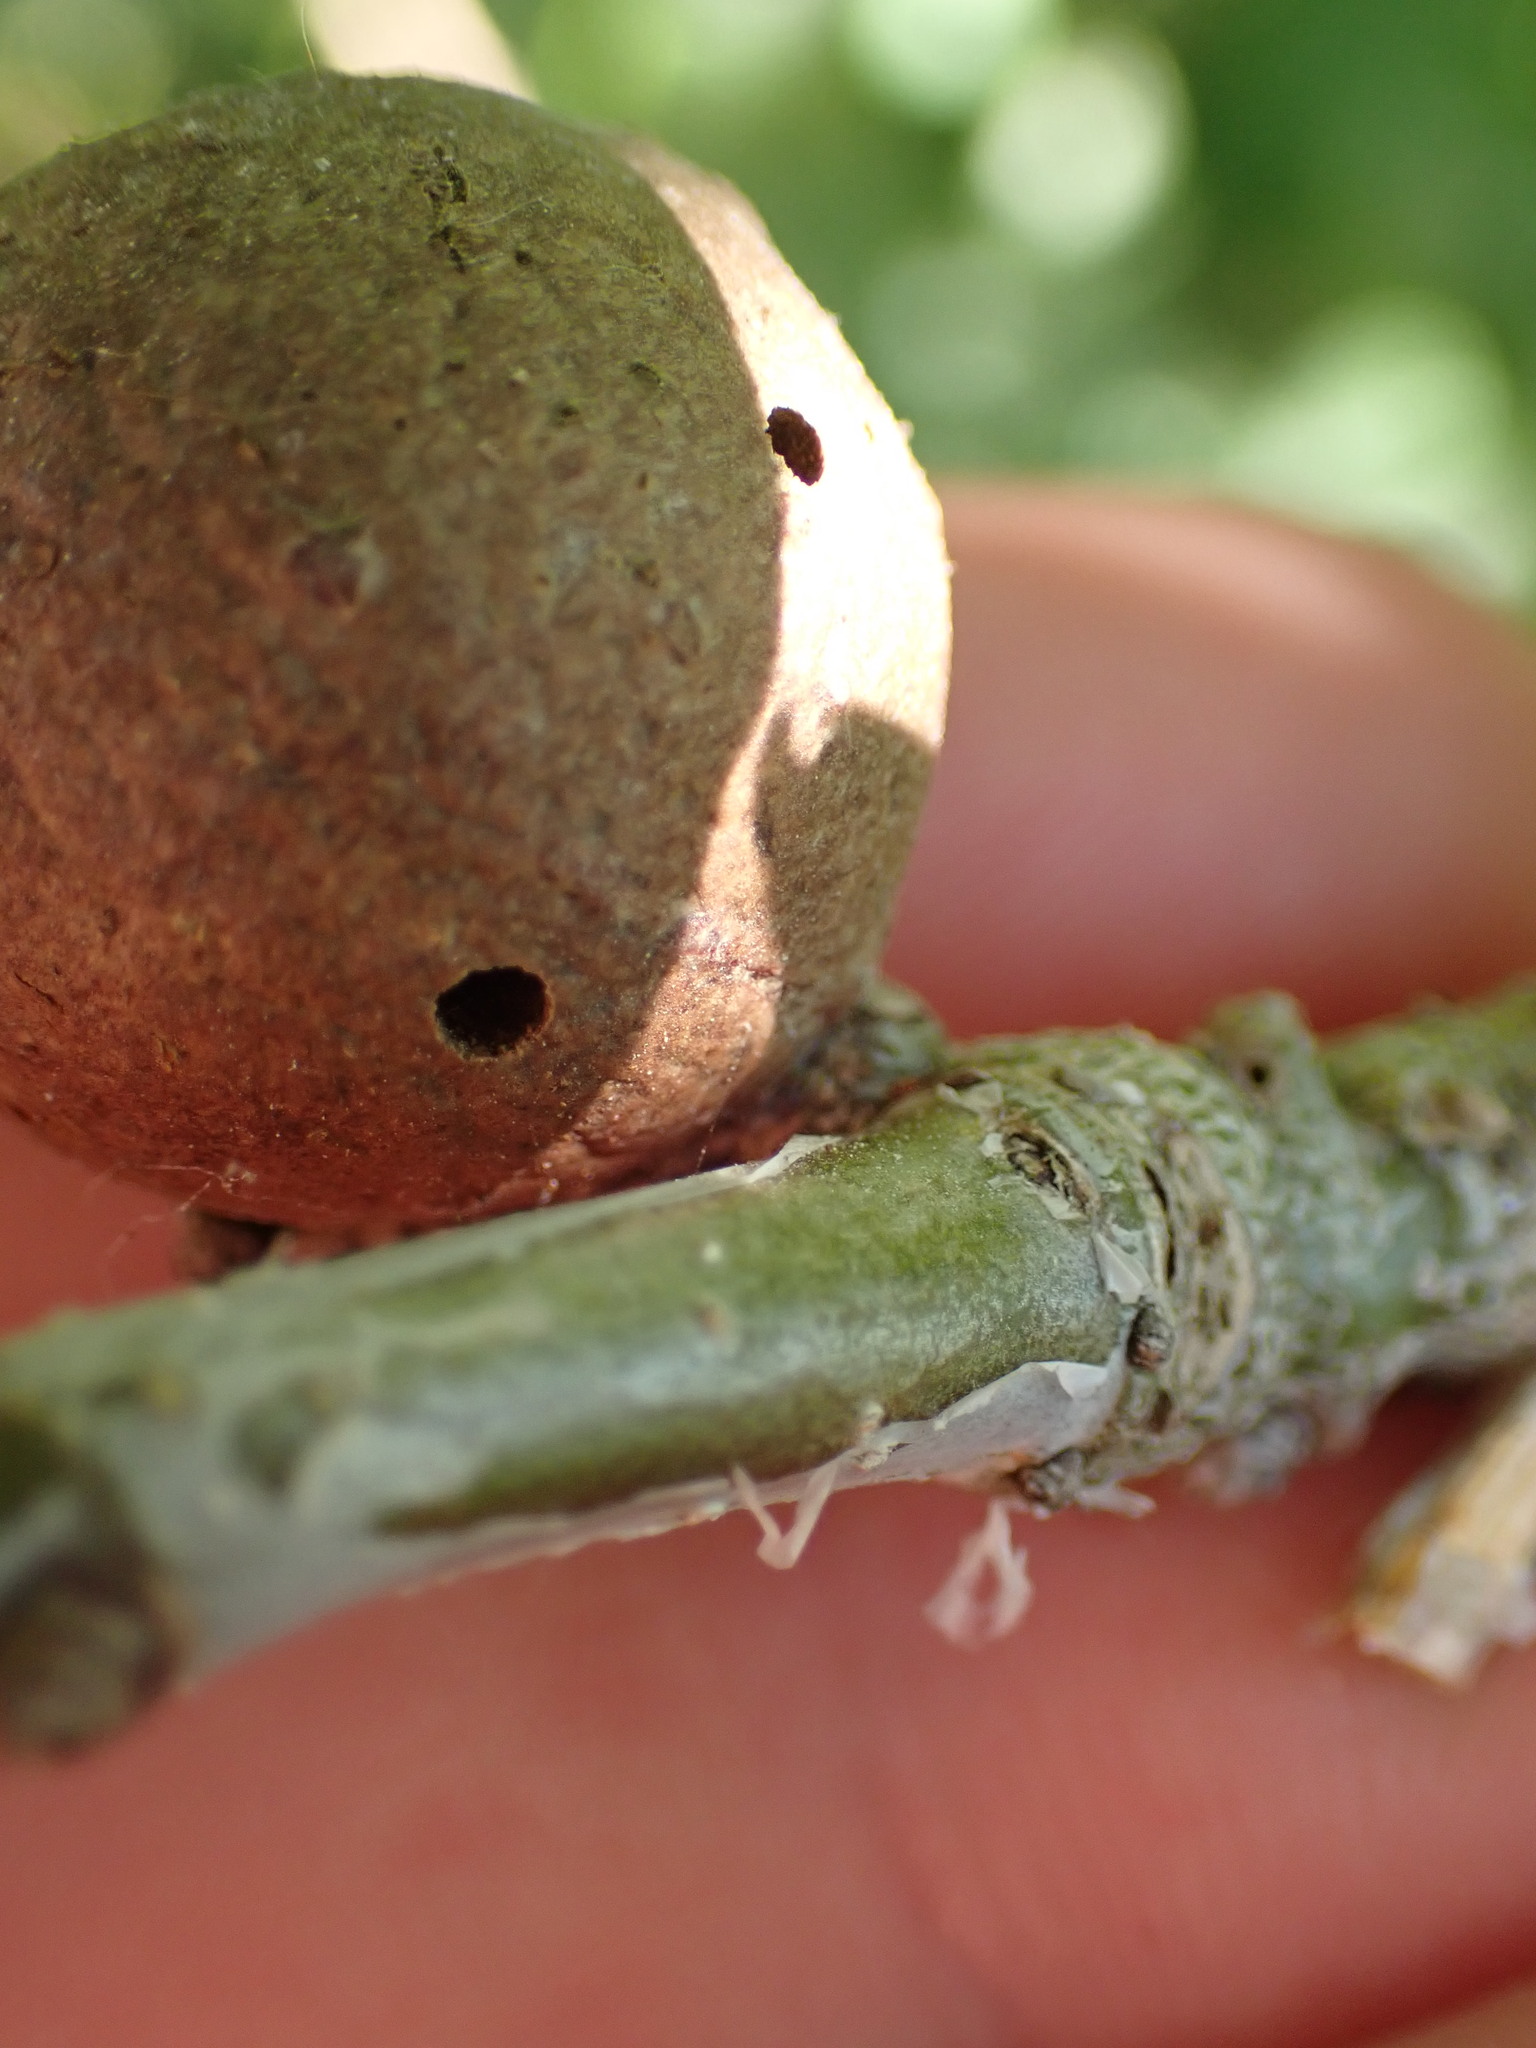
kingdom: Animalia
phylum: Arthropoda
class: Insecta
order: Hymenoptera
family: Cynipidae
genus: Andricus
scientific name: Andricus kollari
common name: Marble gall
